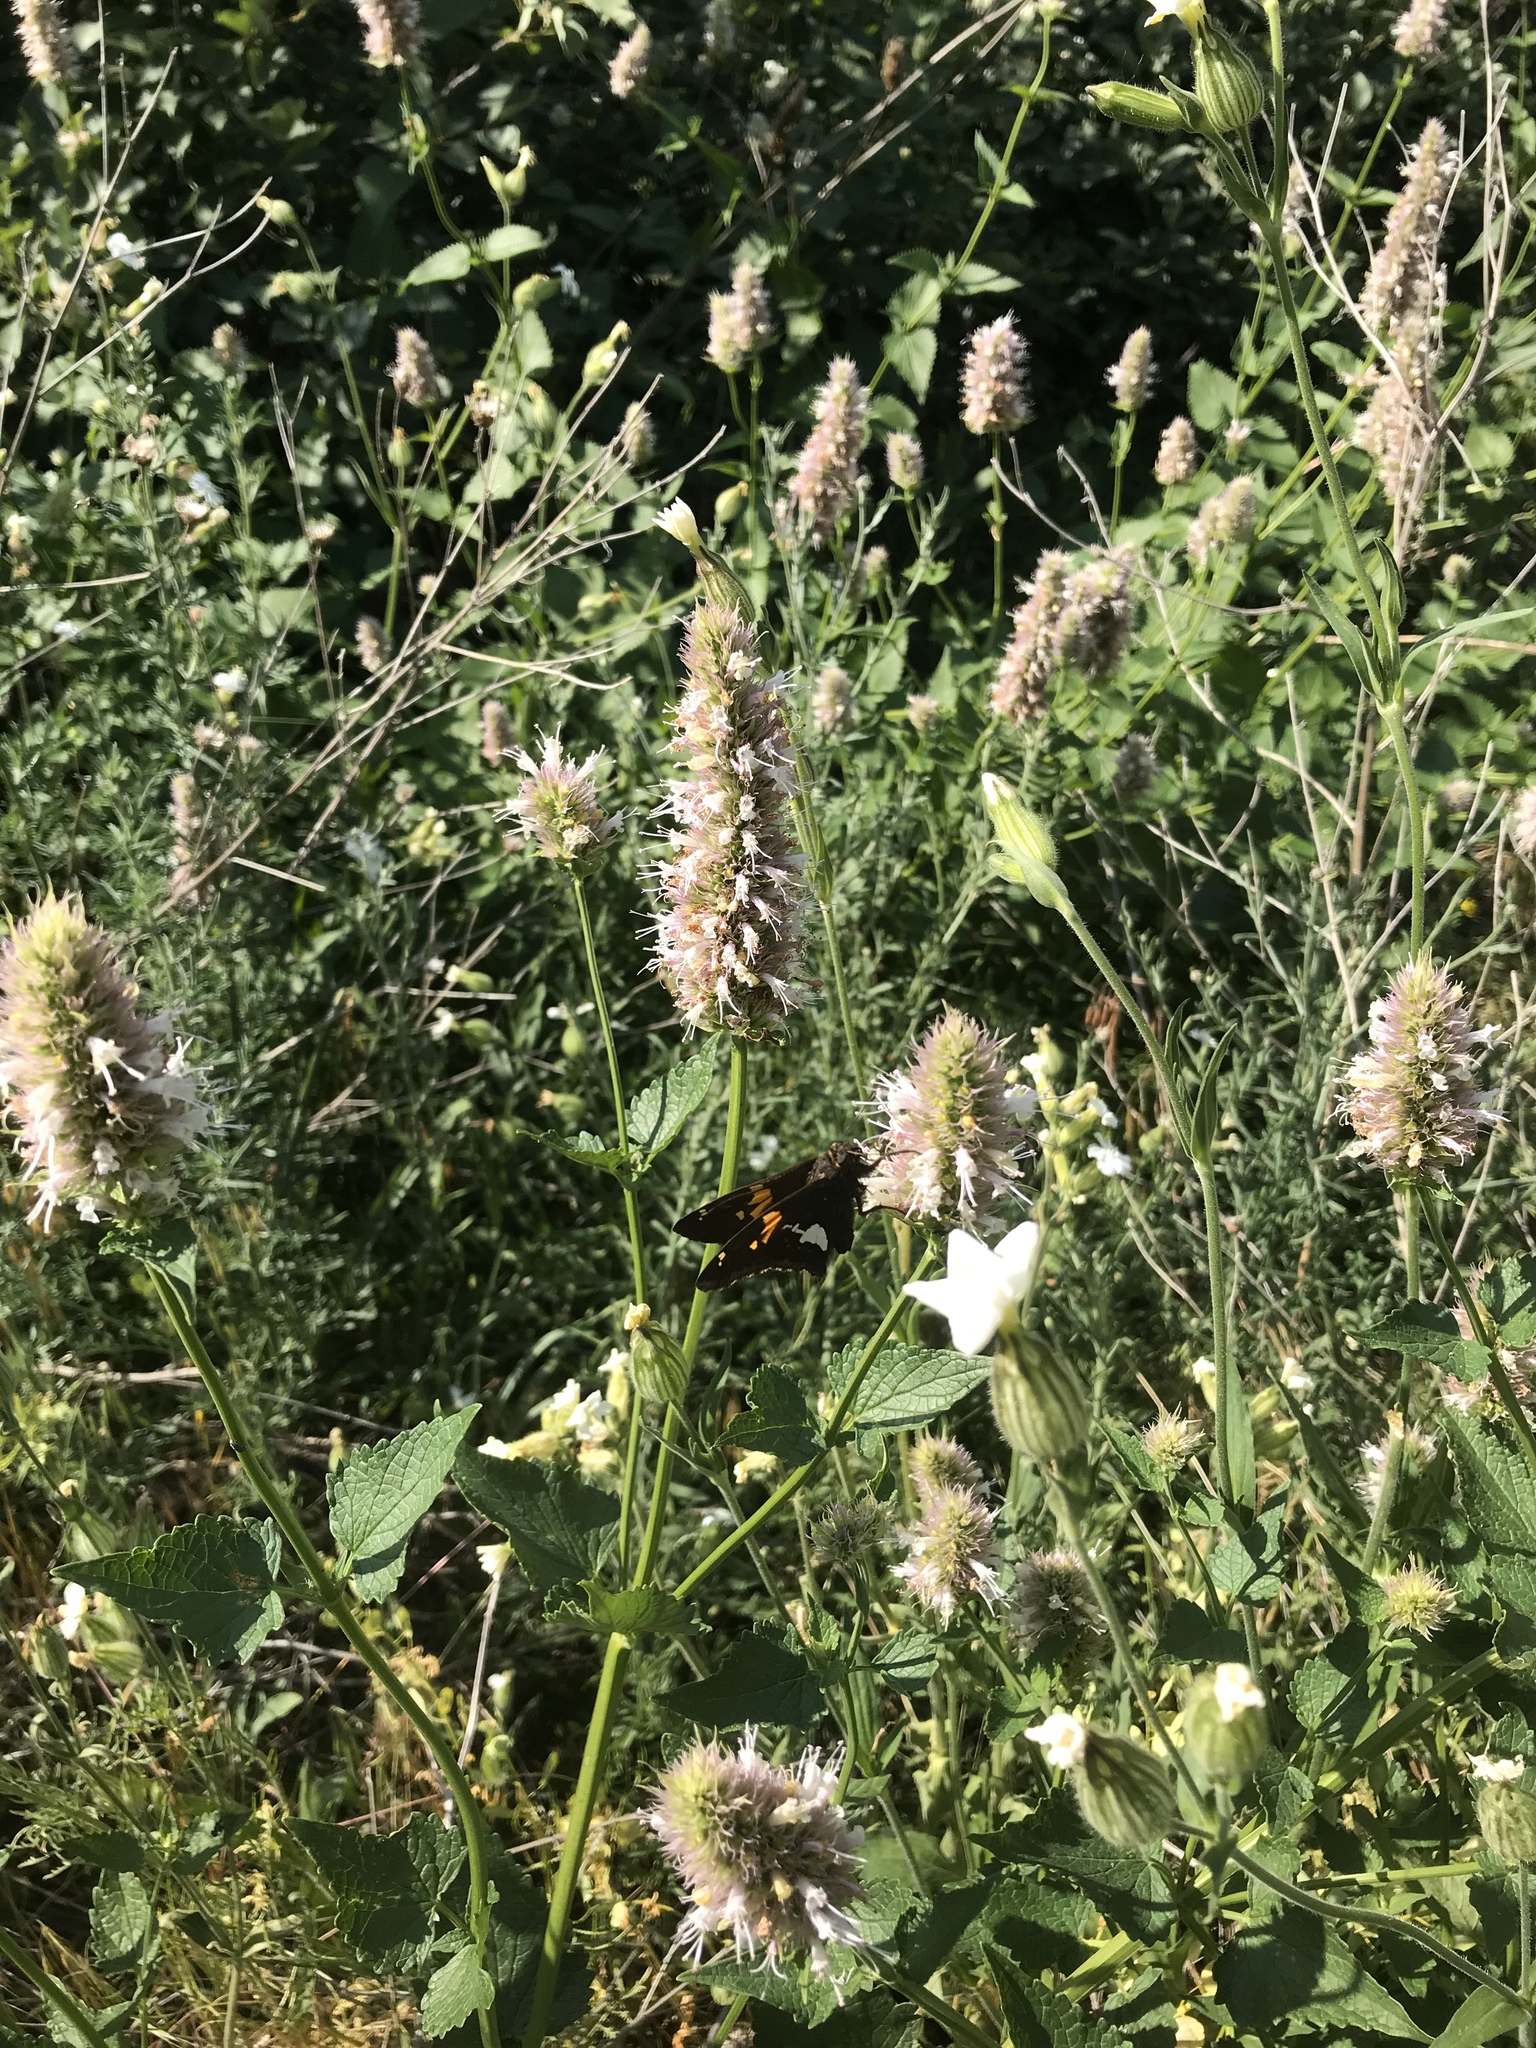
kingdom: Animalia
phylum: Arthropoda
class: Insecta
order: Lepidoptera
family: Hesperiidae
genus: Epargyreus
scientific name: Epargyreus clarus
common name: Silver-spotted skipper
